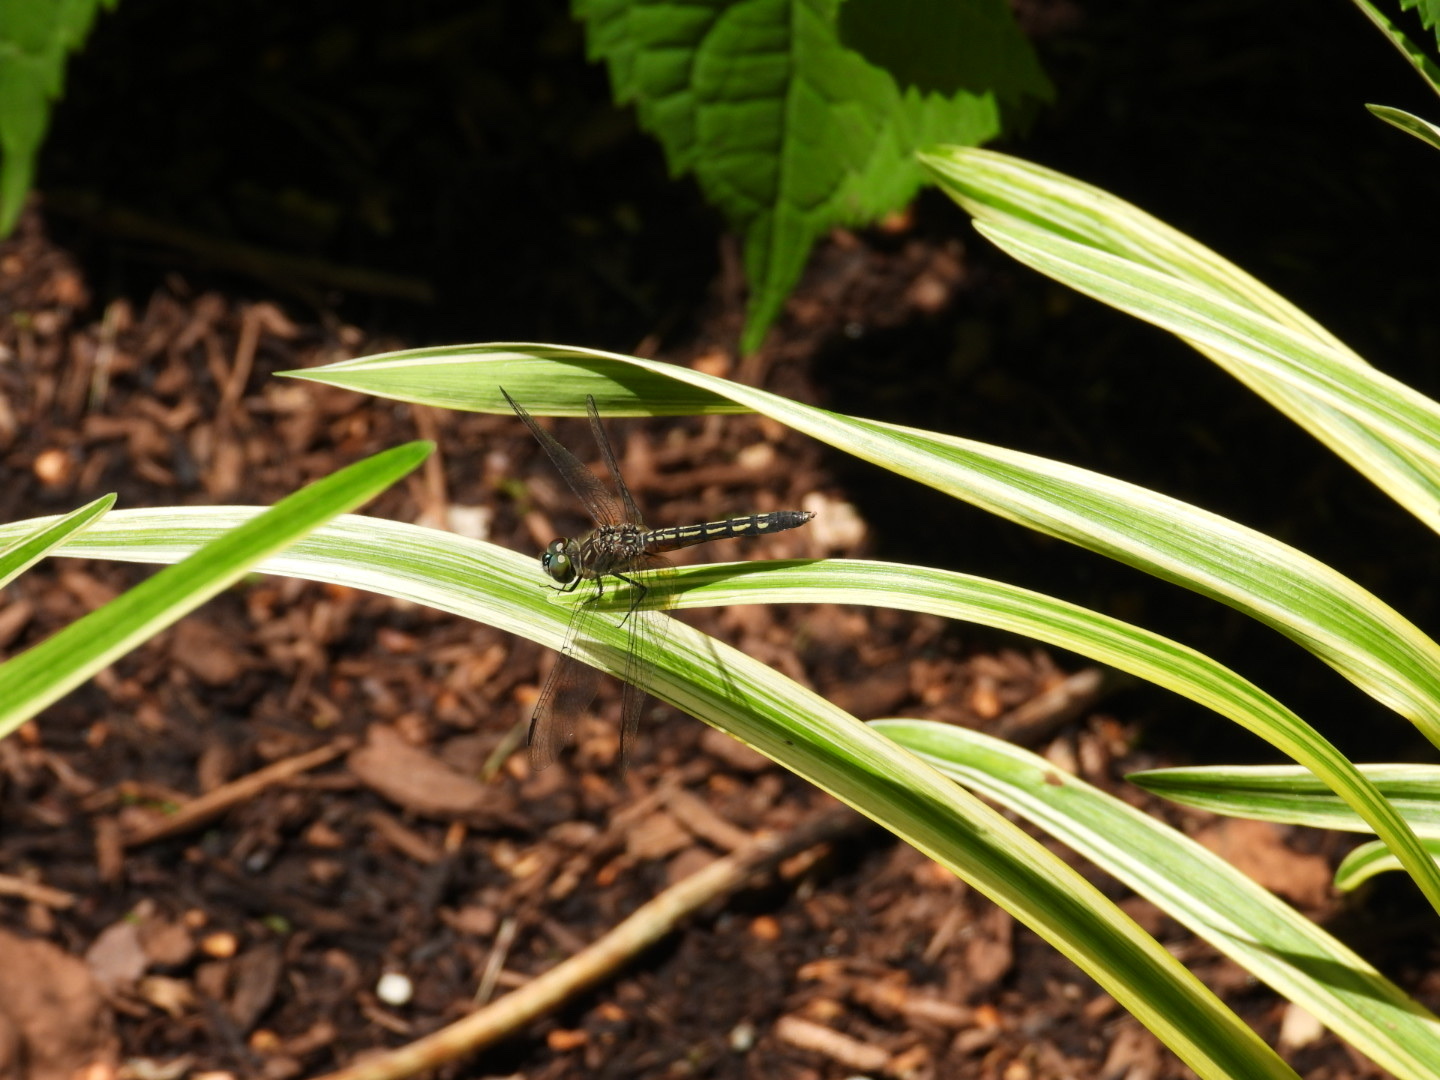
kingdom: Animalia
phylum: Arthropoda
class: Insecta
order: Odonata
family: Libellulidae
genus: Pachydiplax
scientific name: Pachydiplax longipennis
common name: Blue dasher
